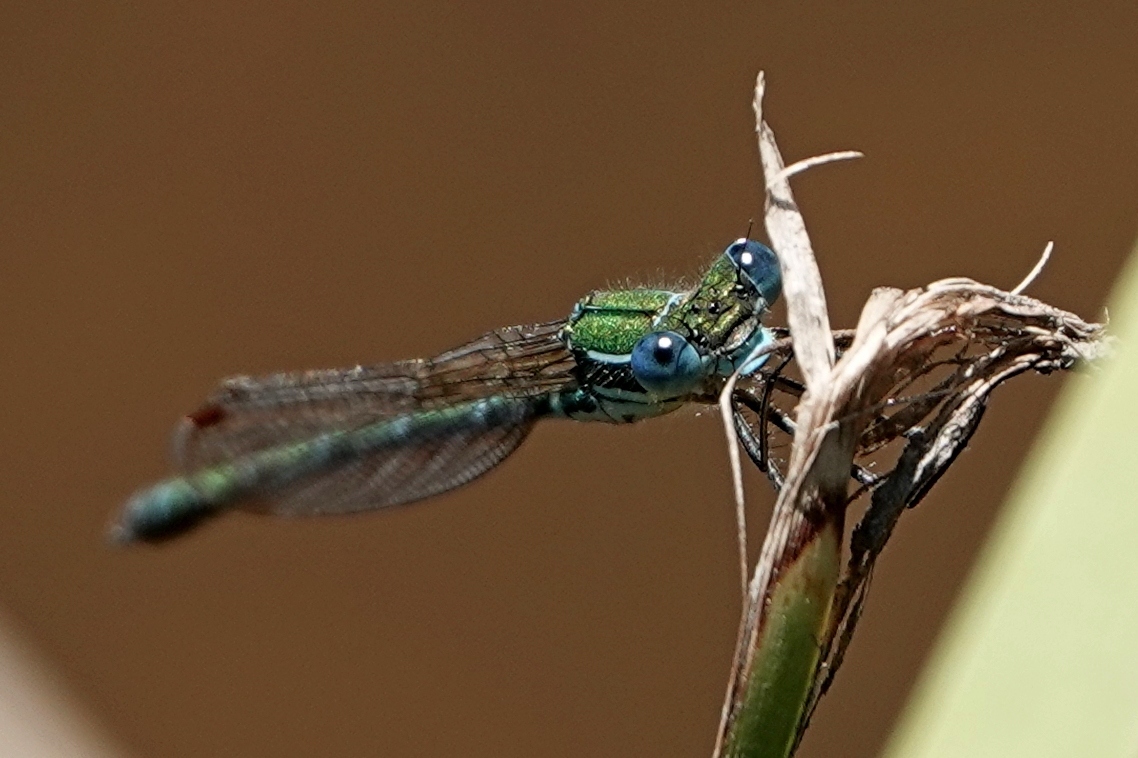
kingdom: Animalia
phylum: Arthropoda
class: Insecta
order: Odonata
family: Lestidae
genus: Austrolestes
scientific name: Austrolestes cingulatus
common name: Metallic ringtail
